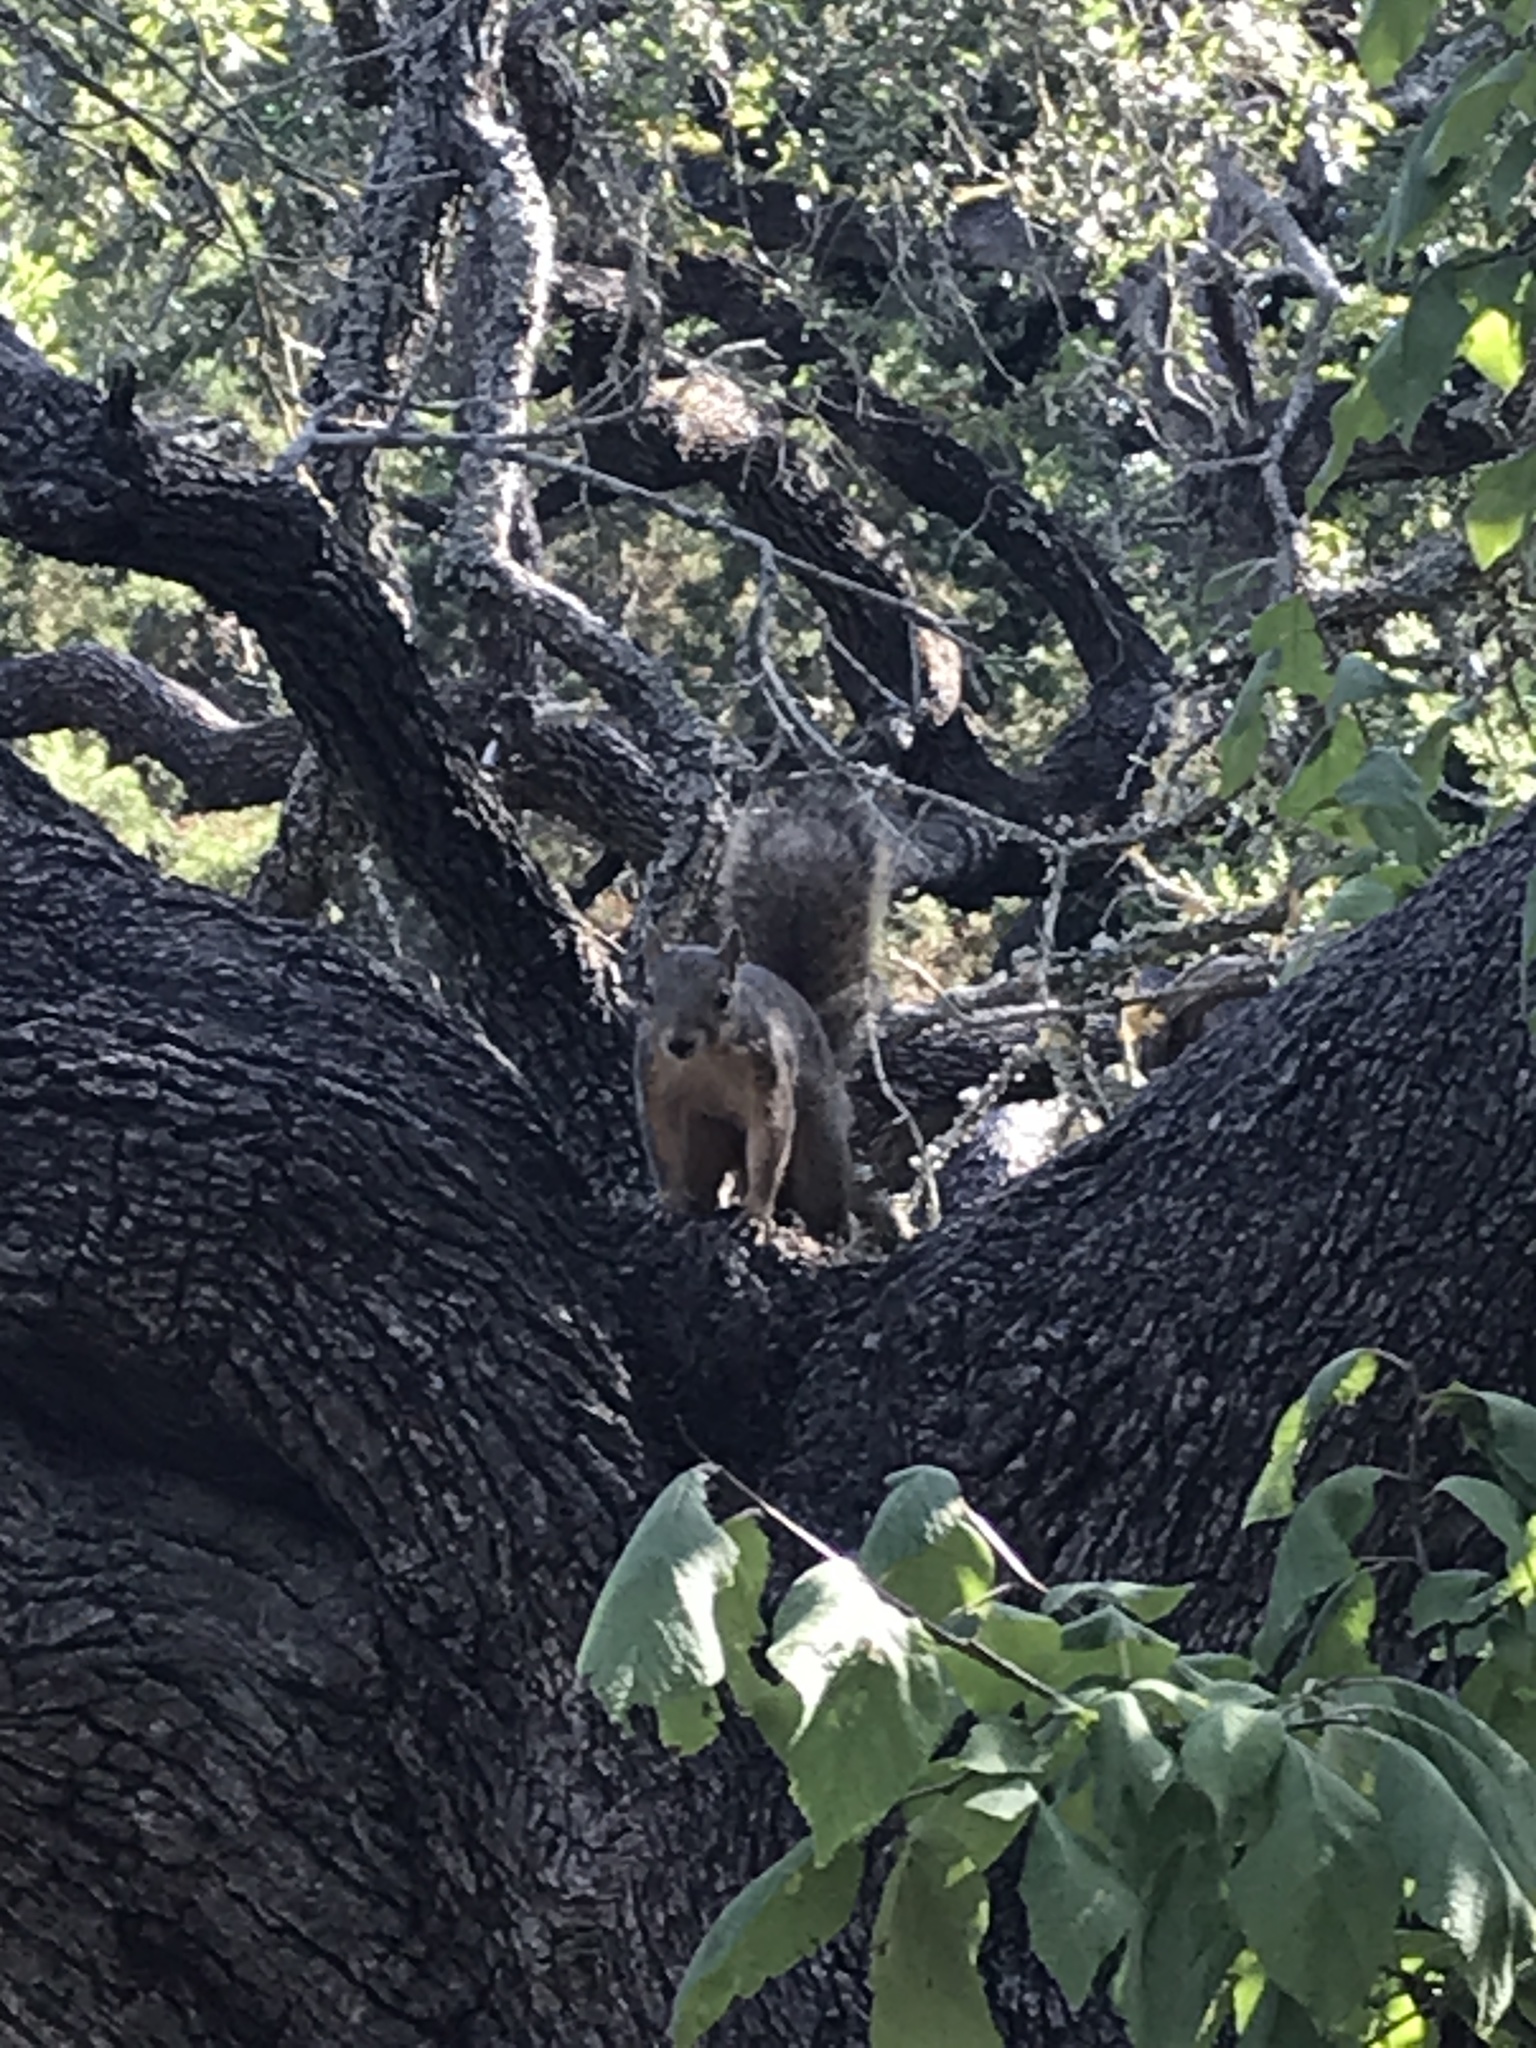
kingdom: Animalia
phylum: Chordata
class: Mammalia
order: Rodentia
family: Sciuridae
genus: Sciurus
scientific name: Sciurus niger
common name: Fox squirrel
